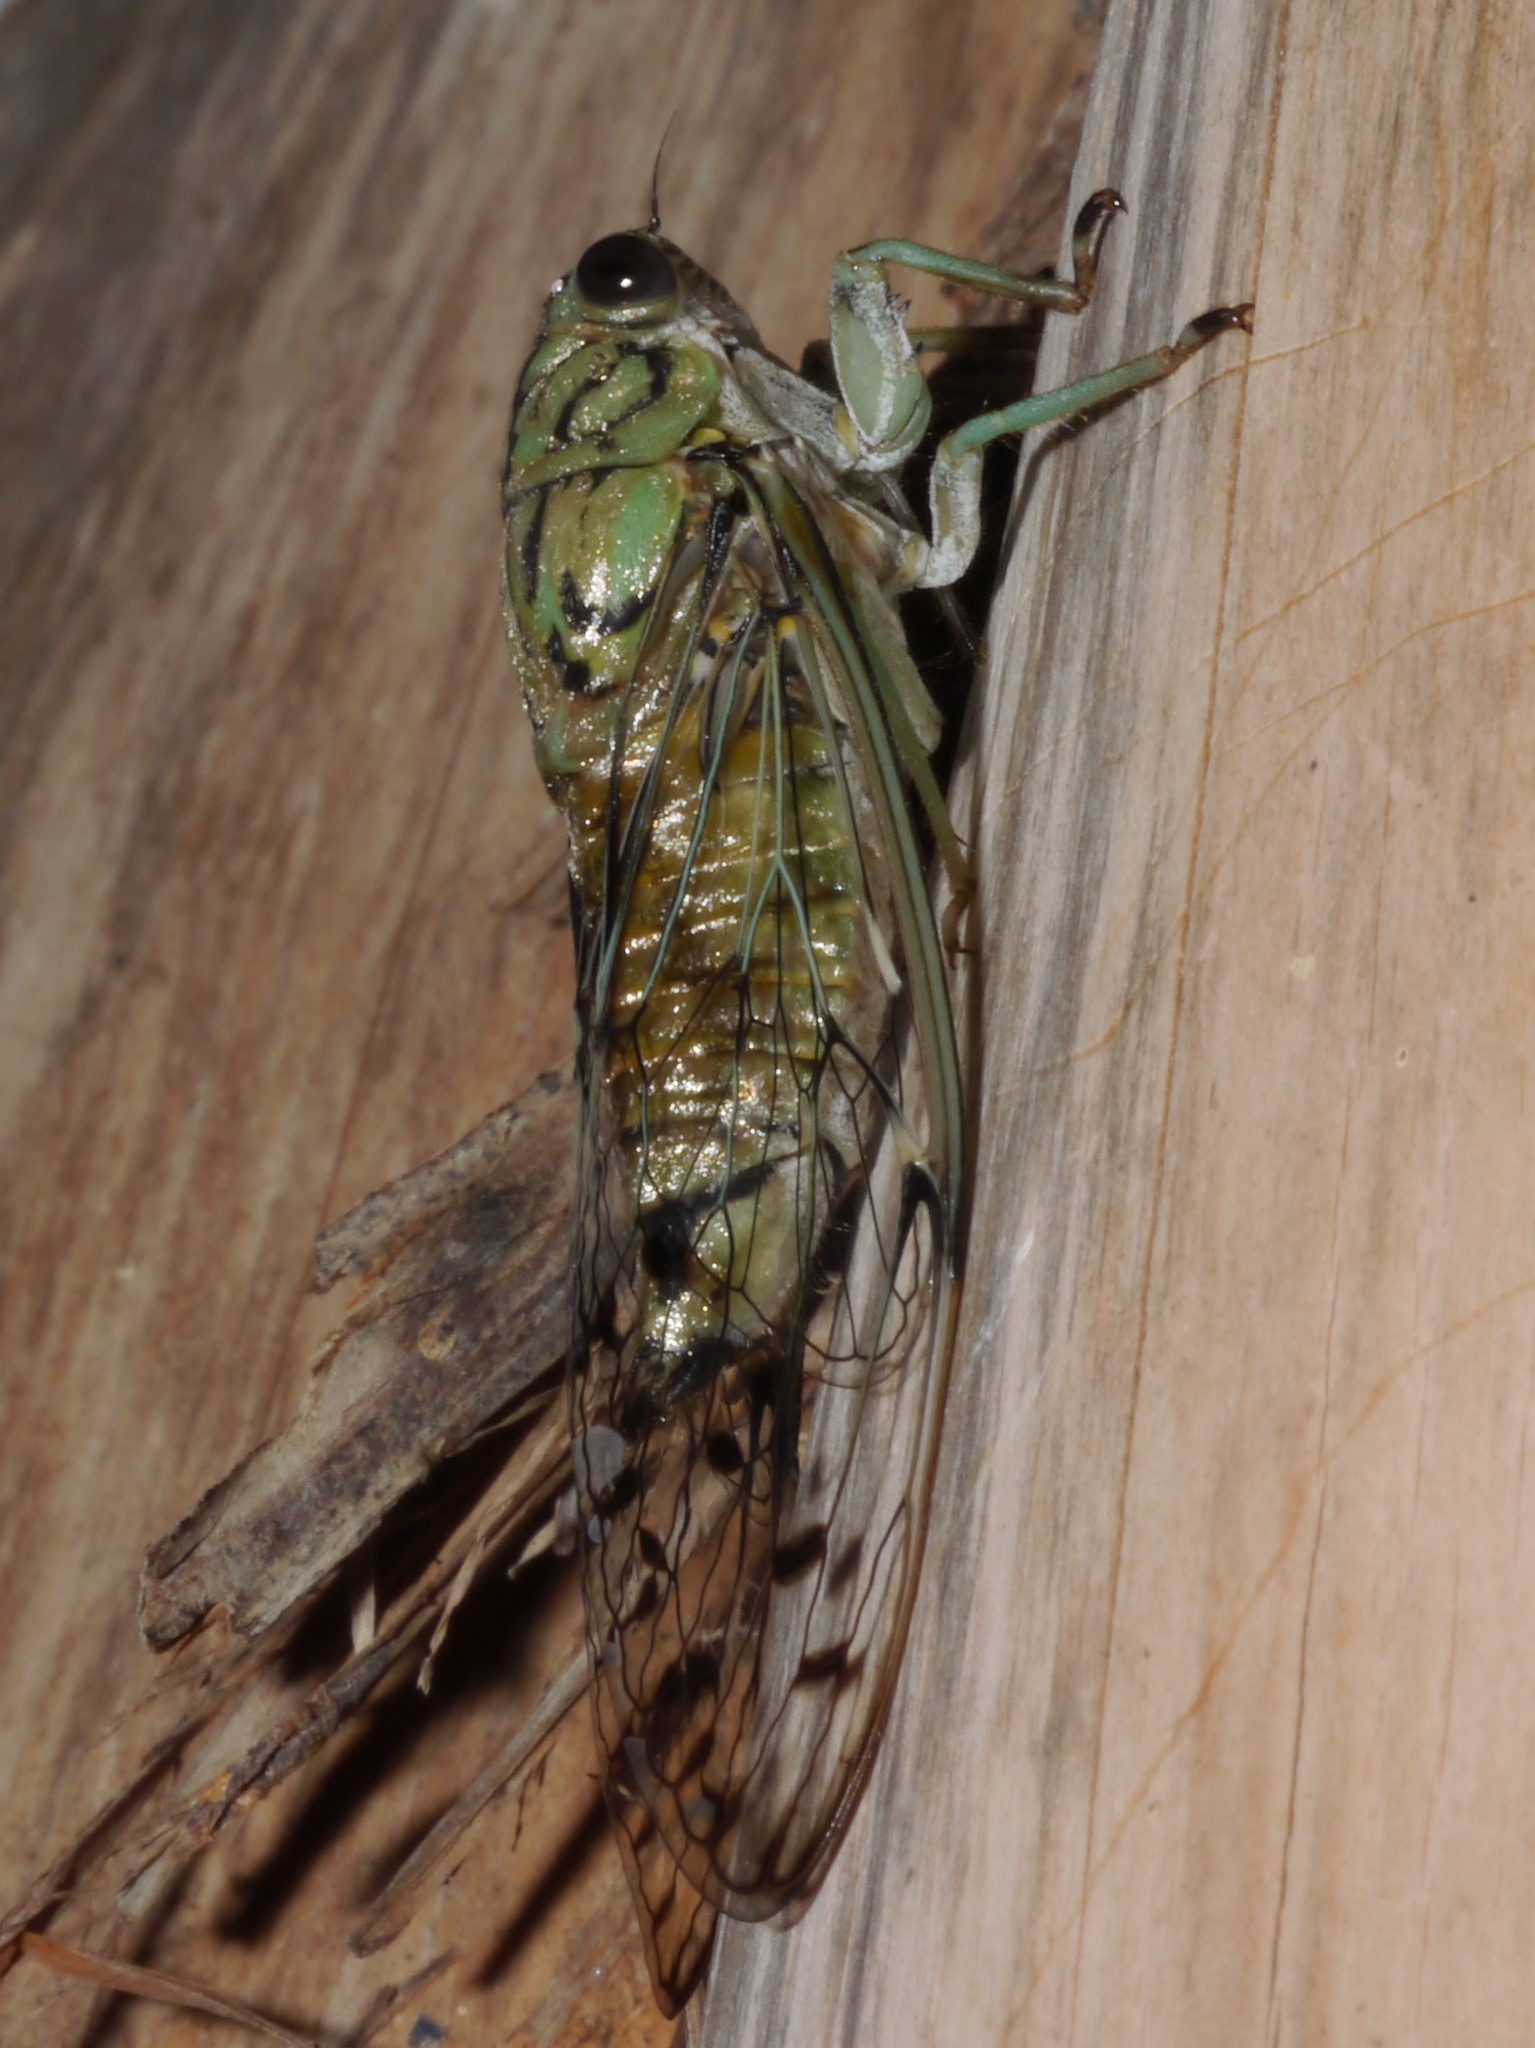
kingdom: Animalia
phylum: Arthropoda
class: Insecta
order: Hemiptera
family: Cicadidae
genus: Neocicada
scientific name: Neocicada hieroglyphica
